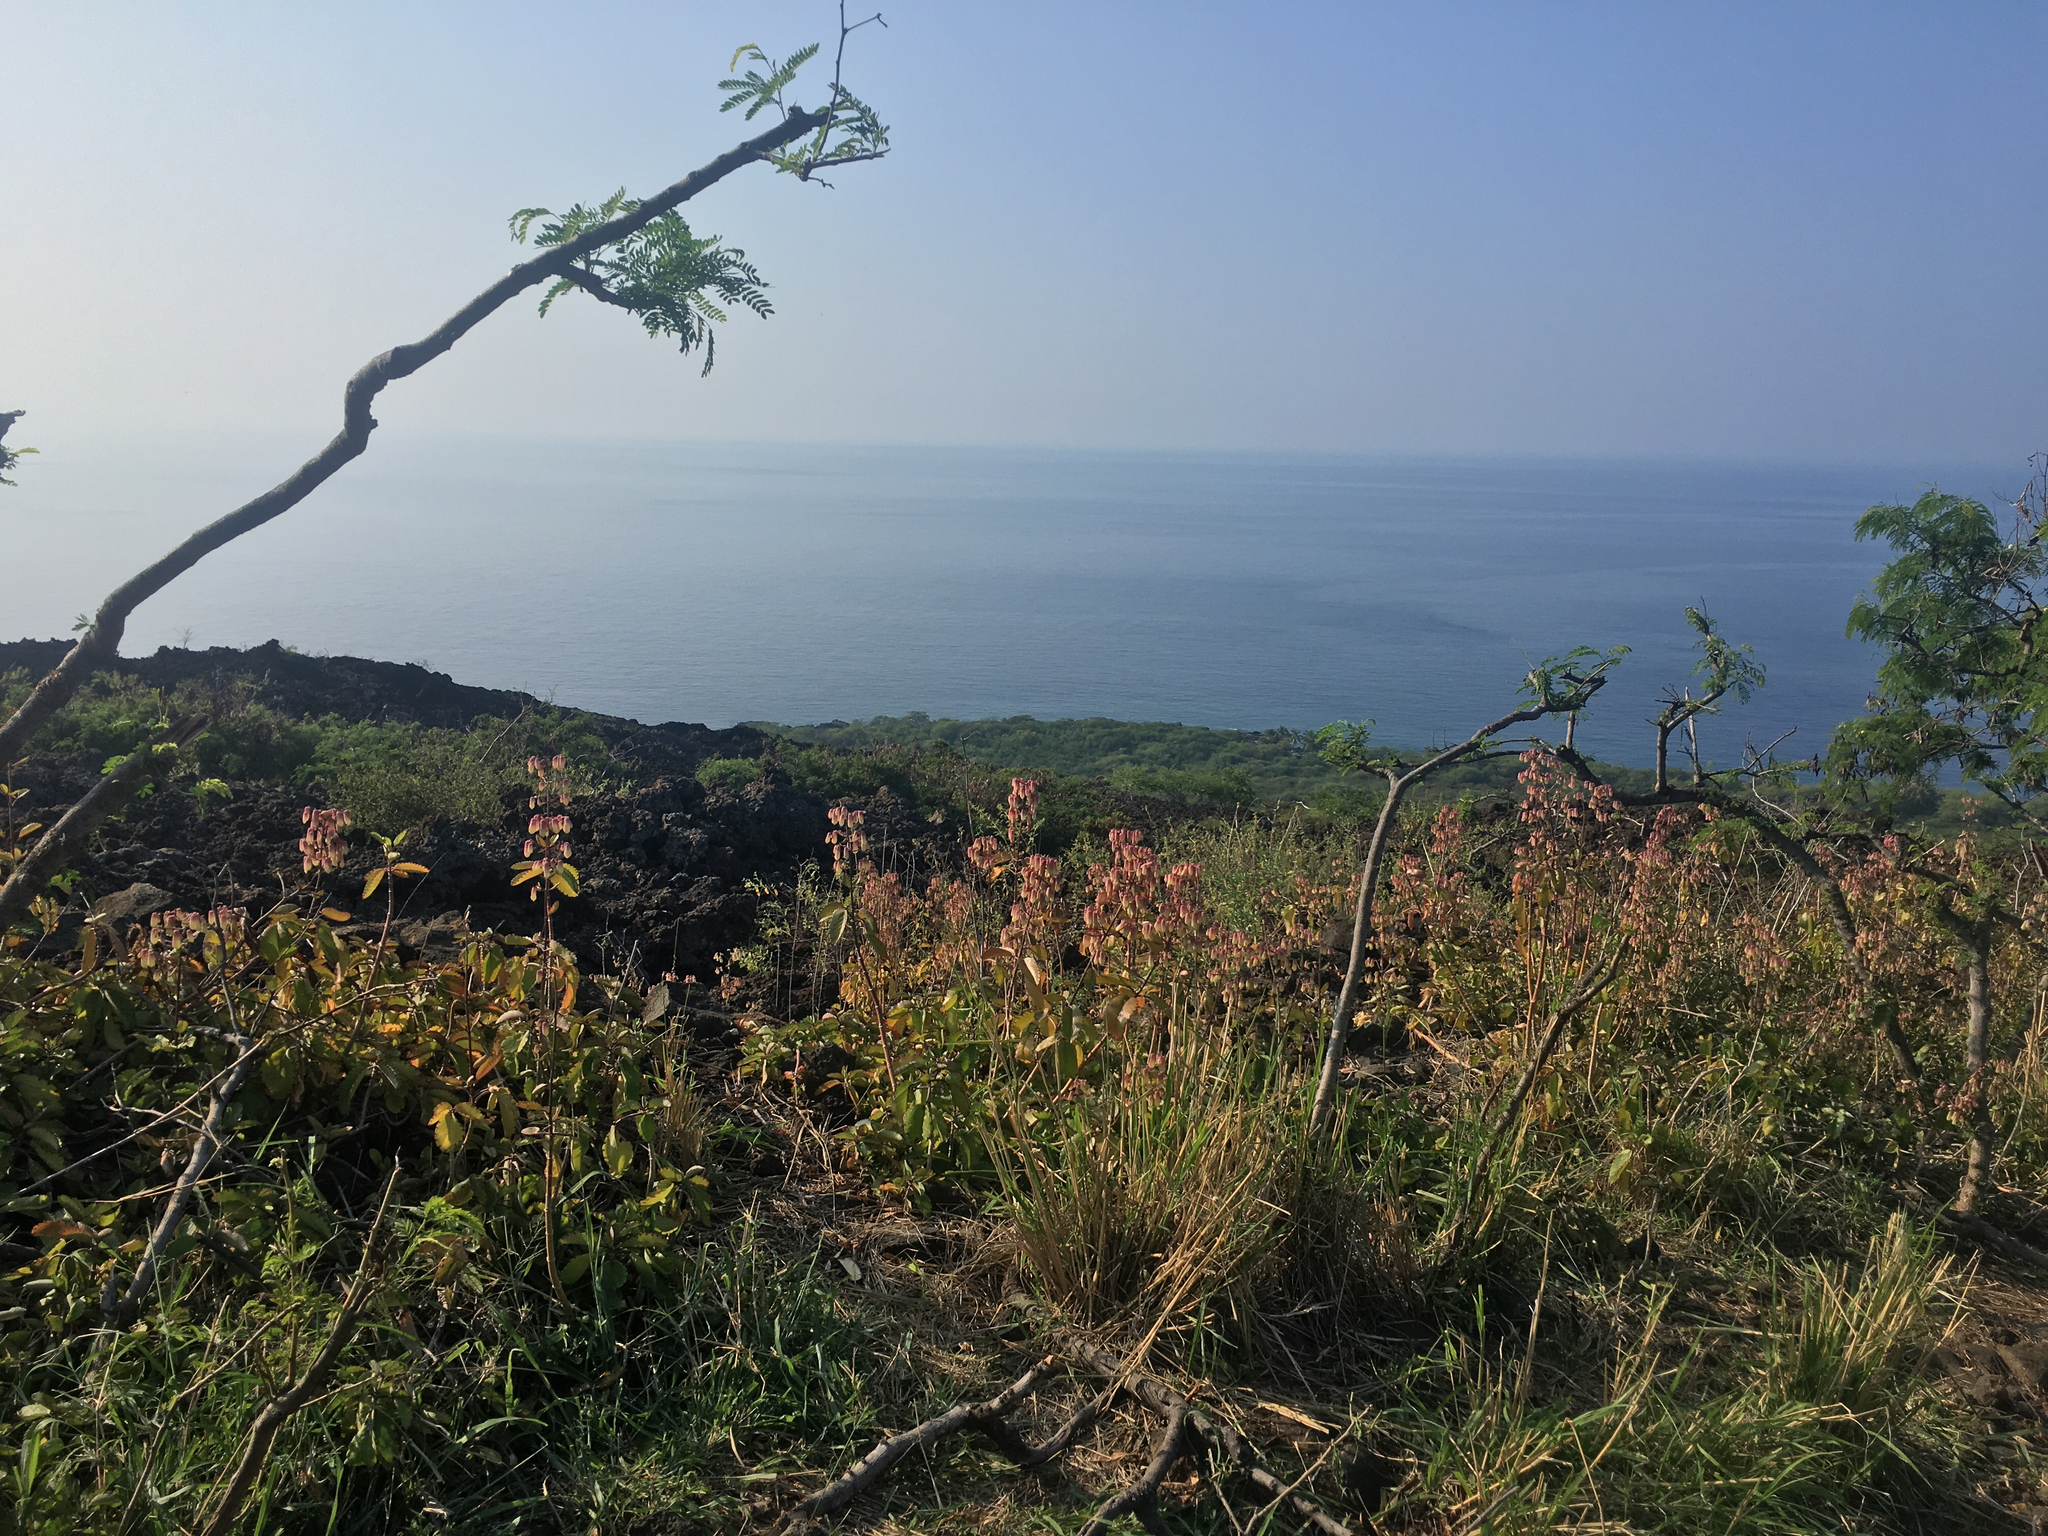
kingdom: Plantae
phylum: Tracheophyta
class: Magnoliopsida
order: Saxifragales
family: Crassulaceae
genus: Kalanchoe
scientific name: Kalanchoe pinnata
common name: Cathedral bells
